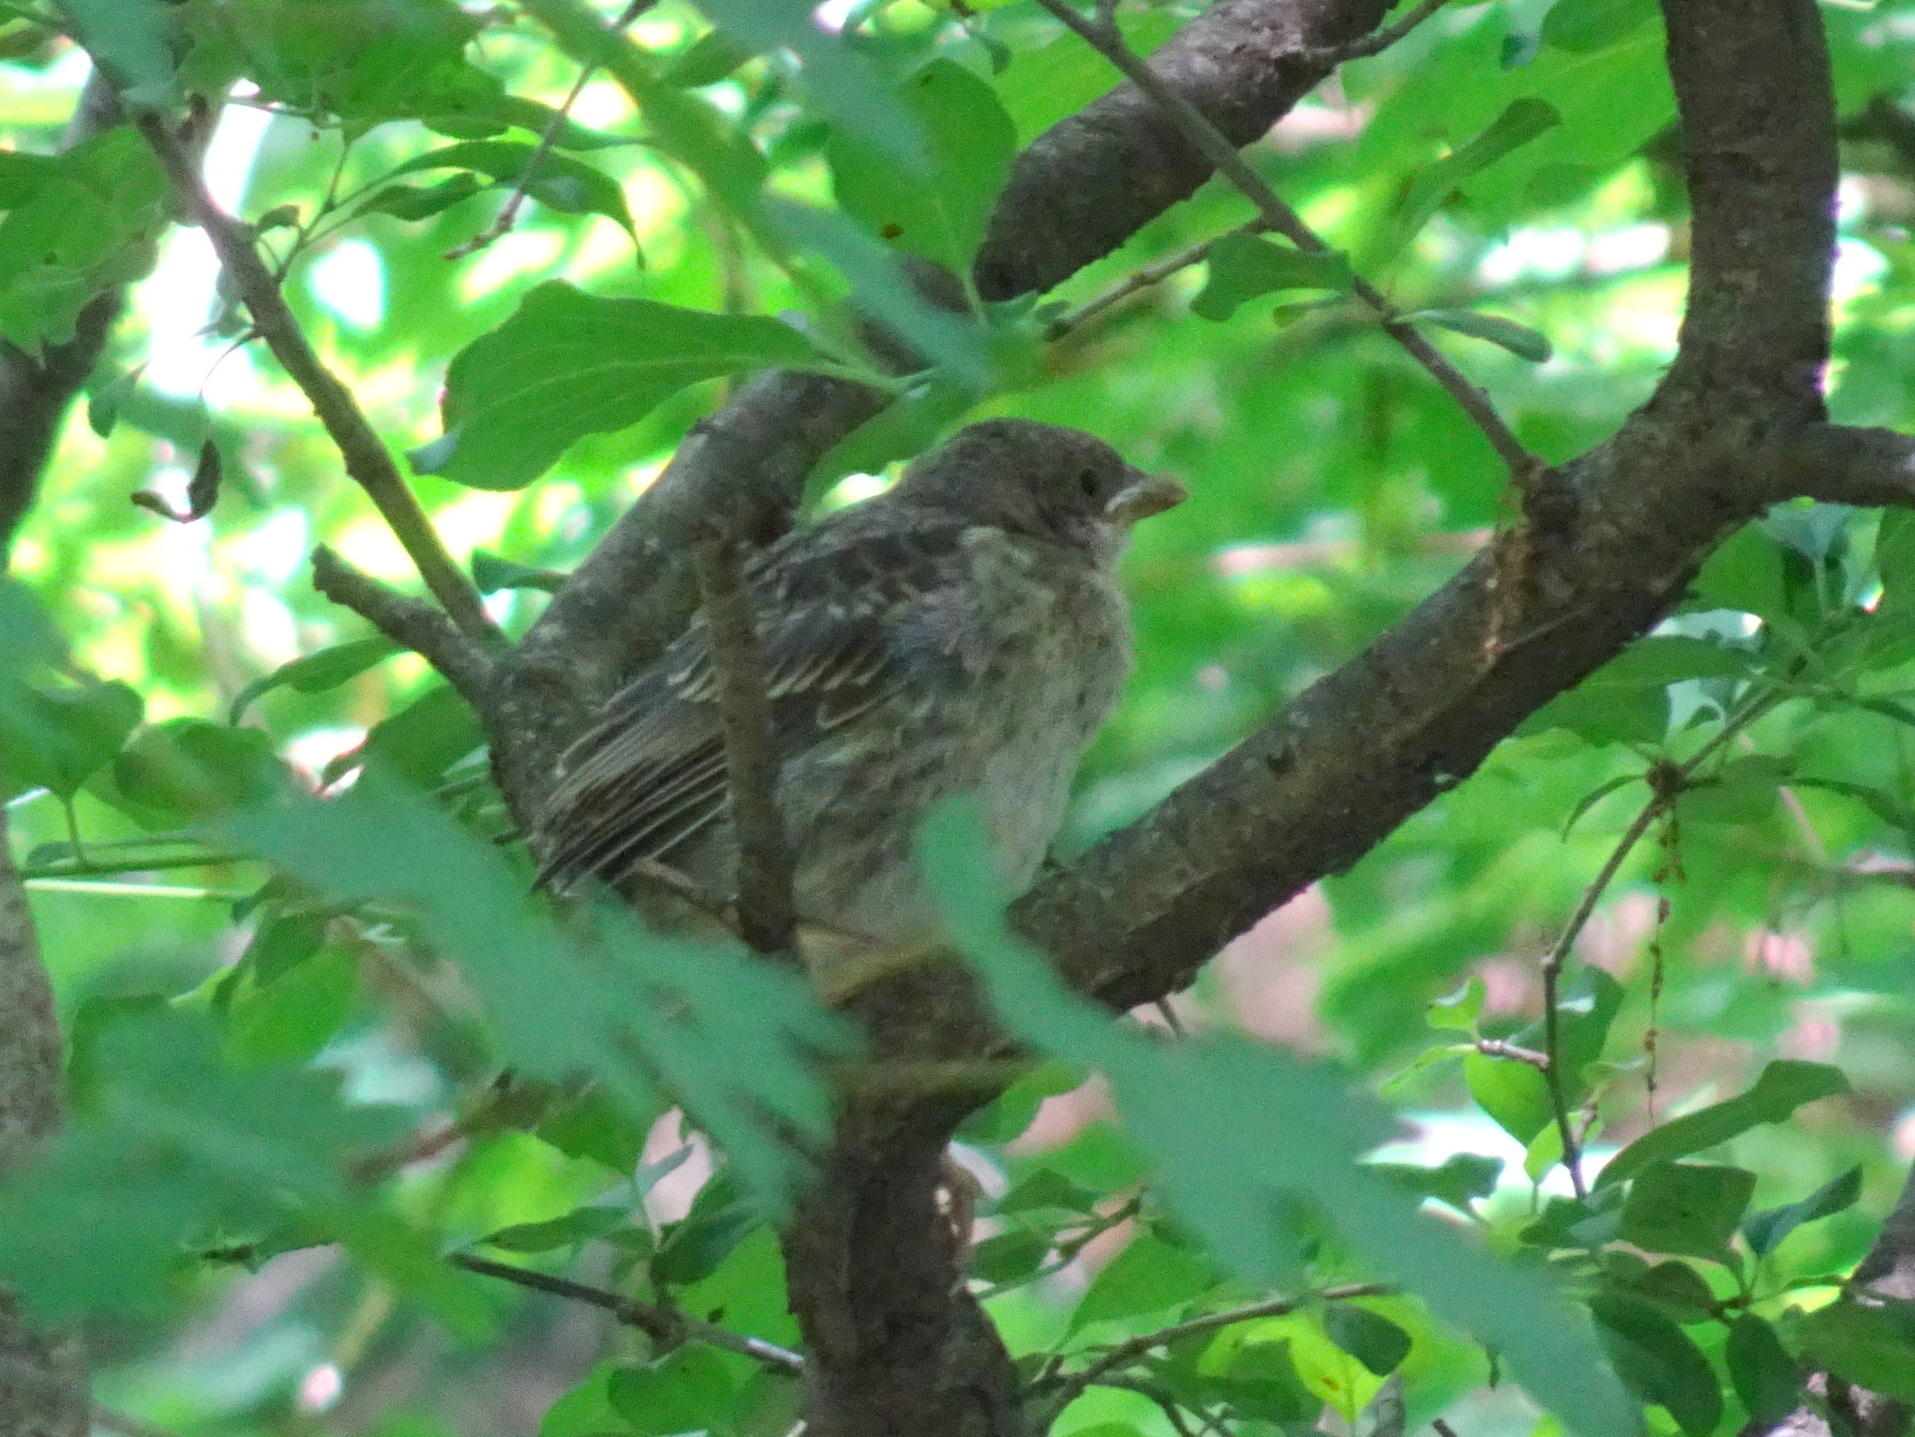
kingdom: Animalia
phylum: Chordata
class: Aves
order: Passeriformes
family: Icteridae
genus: Molothrus
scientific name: Molothrus ater
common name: Brown-headed cowbird
